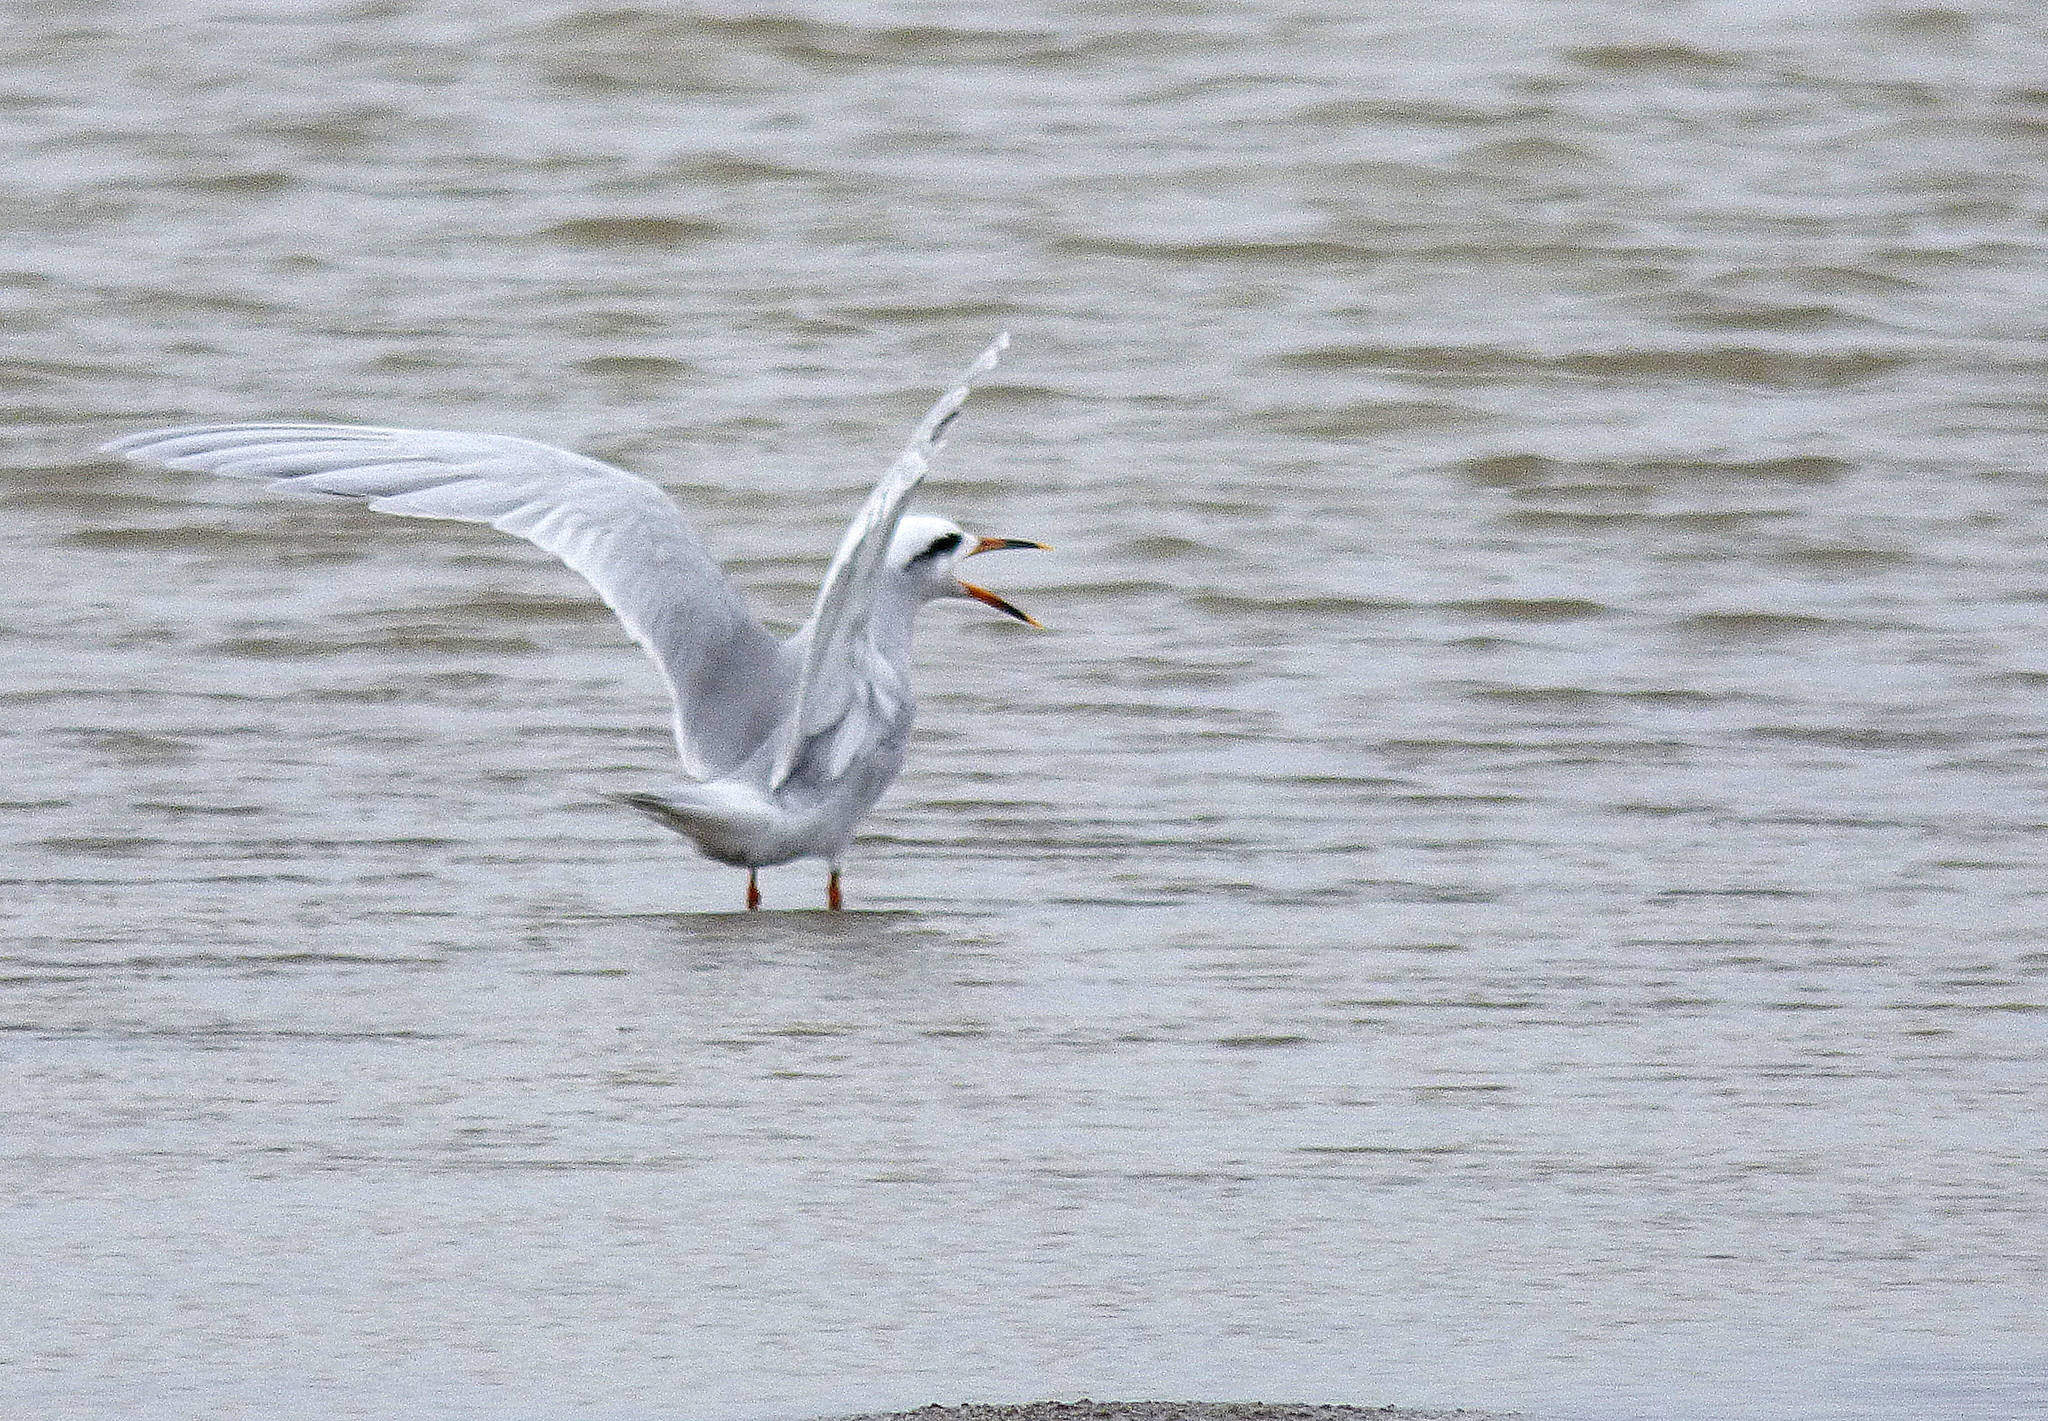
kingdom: Animalia
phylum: Chordata
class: Aves
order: Charadriiformes
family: Laridae
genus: Sterna
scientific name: Sterna trudeaui
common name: Snowy-crowned tern
